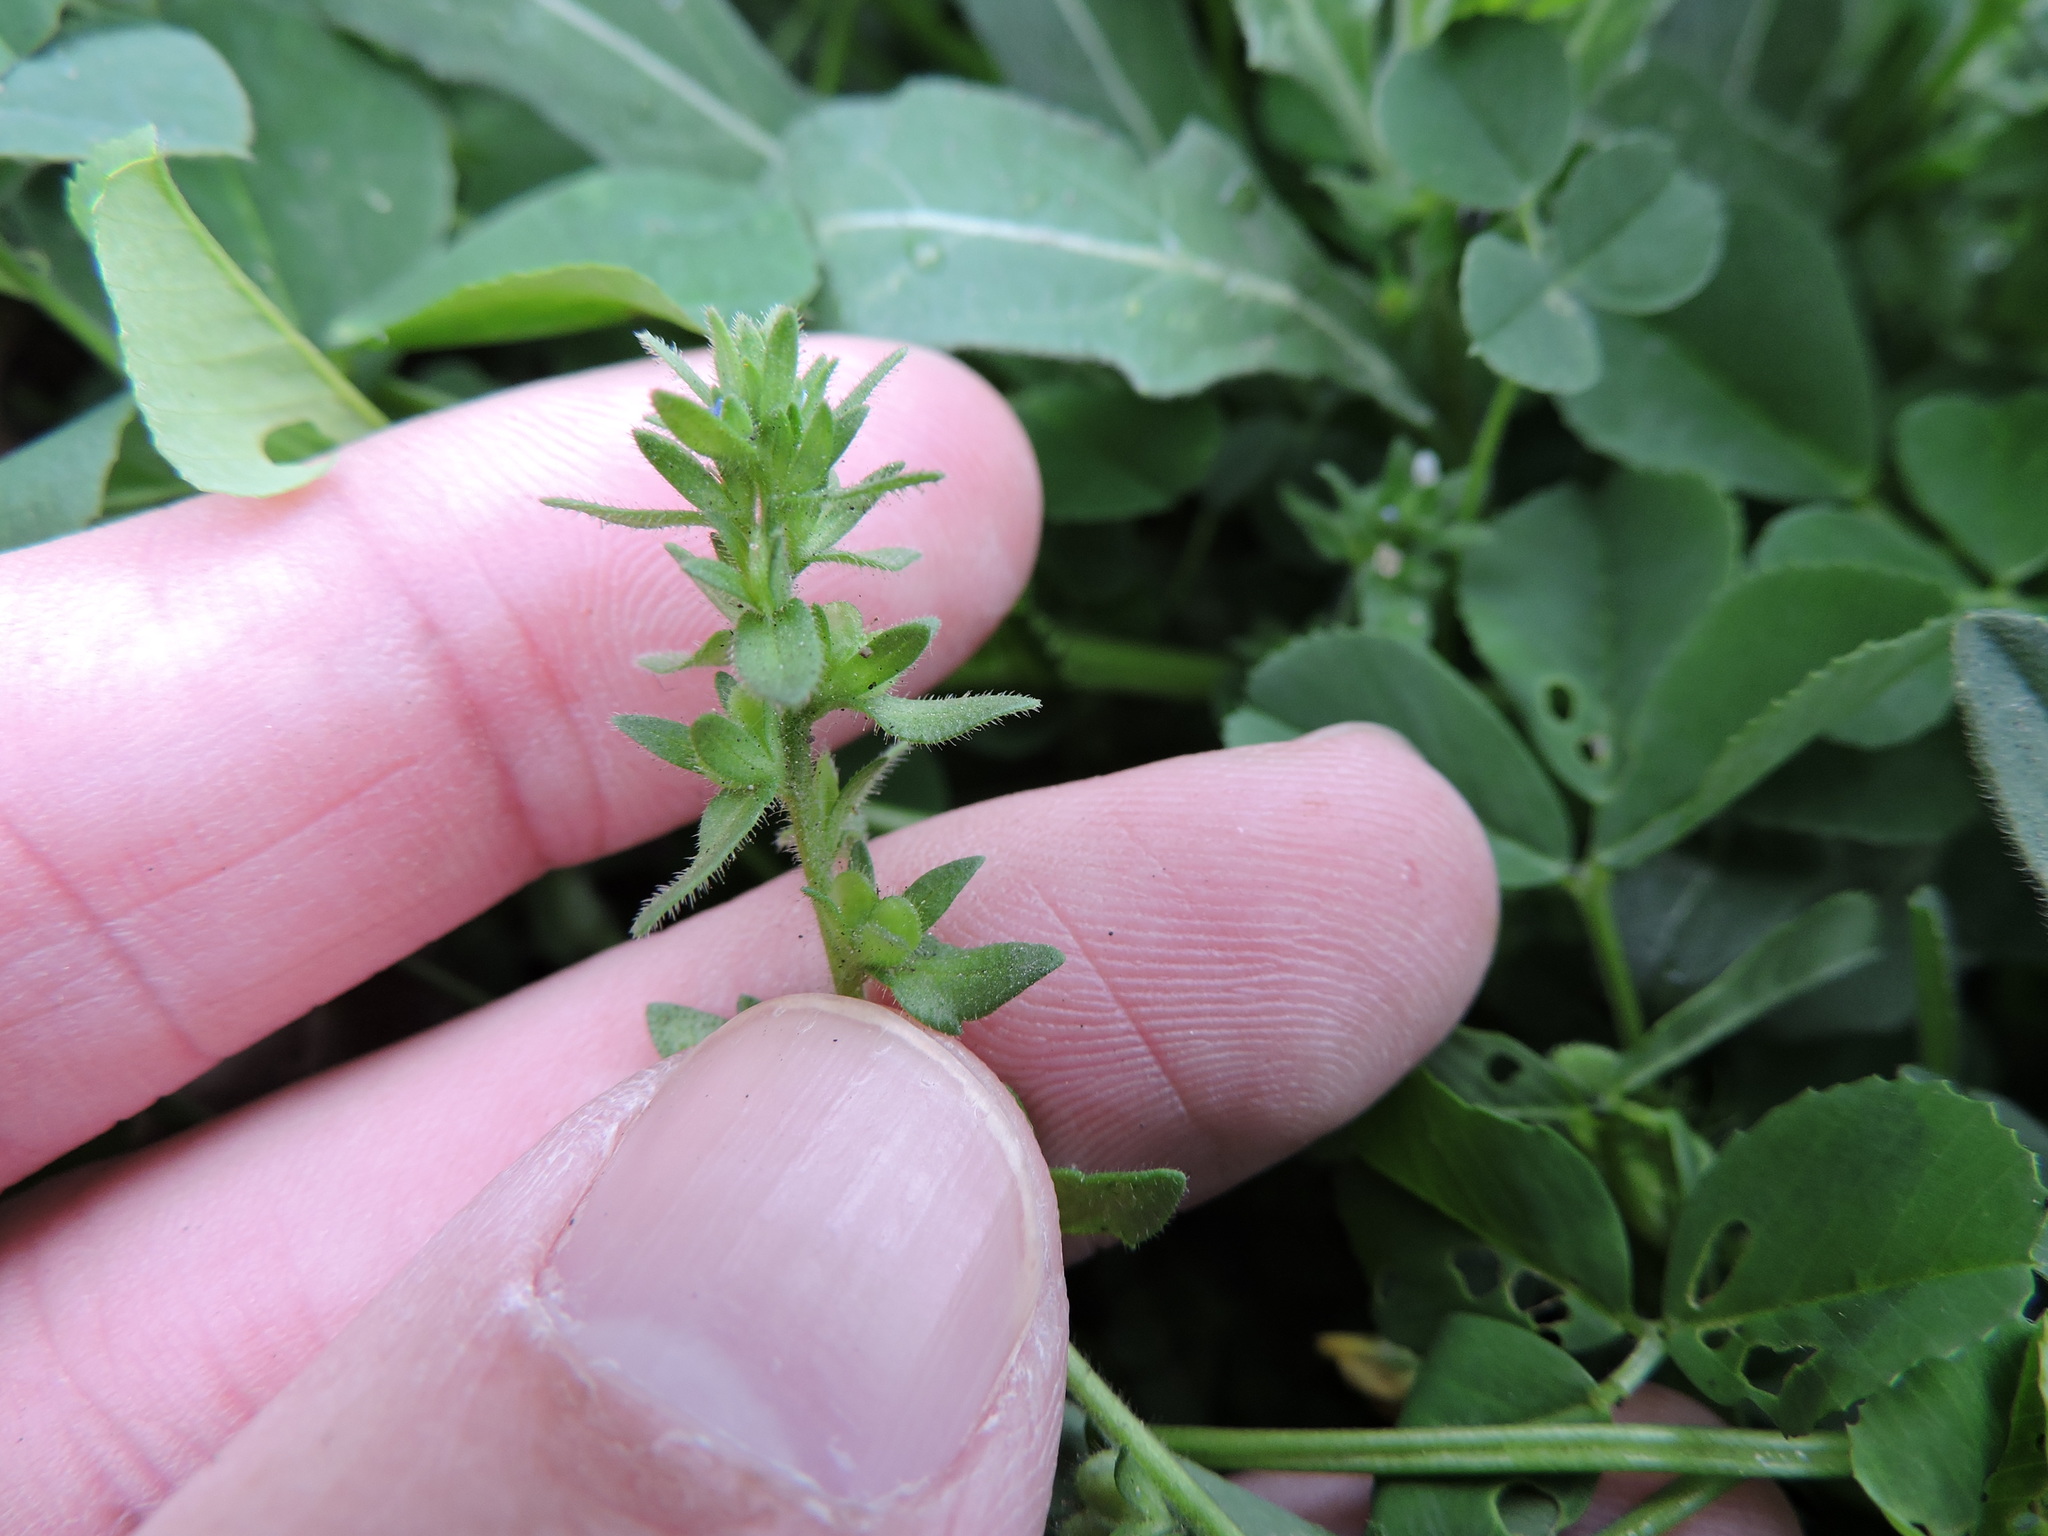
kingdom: Plantae
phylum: Tracheophyta
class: Magnoliopsida
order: Lamiales
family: Plantaginaceae
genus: Veronica
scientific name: Veronica arvensis
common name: Corn speedwell
